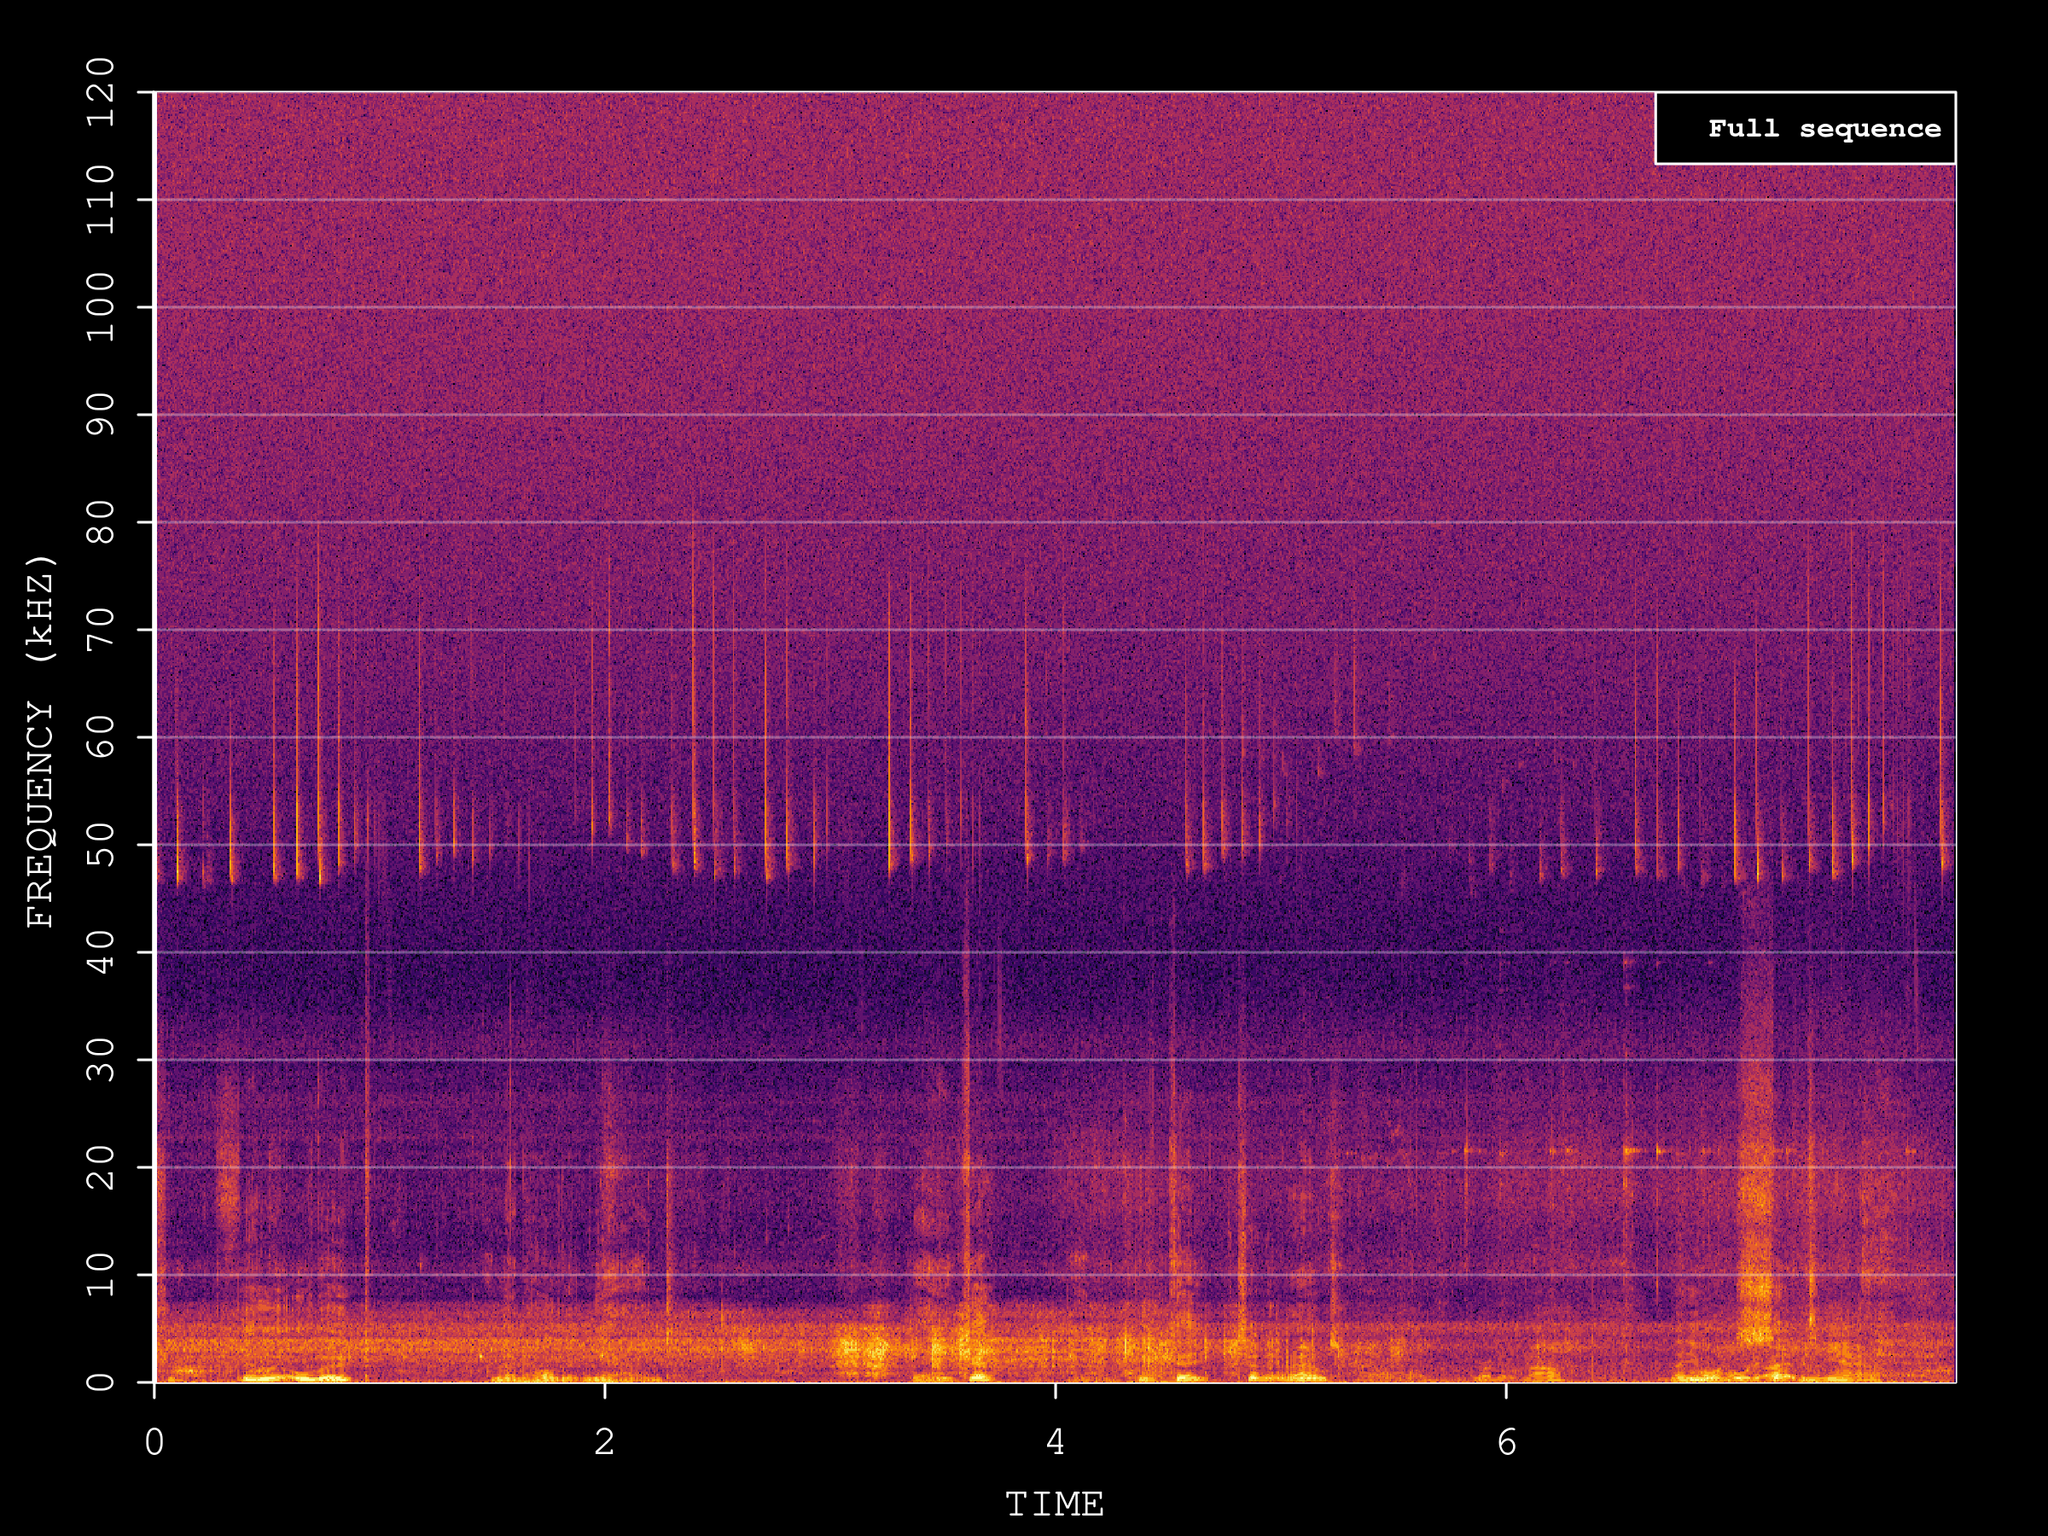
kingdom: Animalia
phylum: Chordata
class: Mammalia
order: Chiroptera
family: Vespertilionidae
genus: Pipistrellus
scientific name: Pipistrellus pipistrellus
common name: Common pipistrelle
